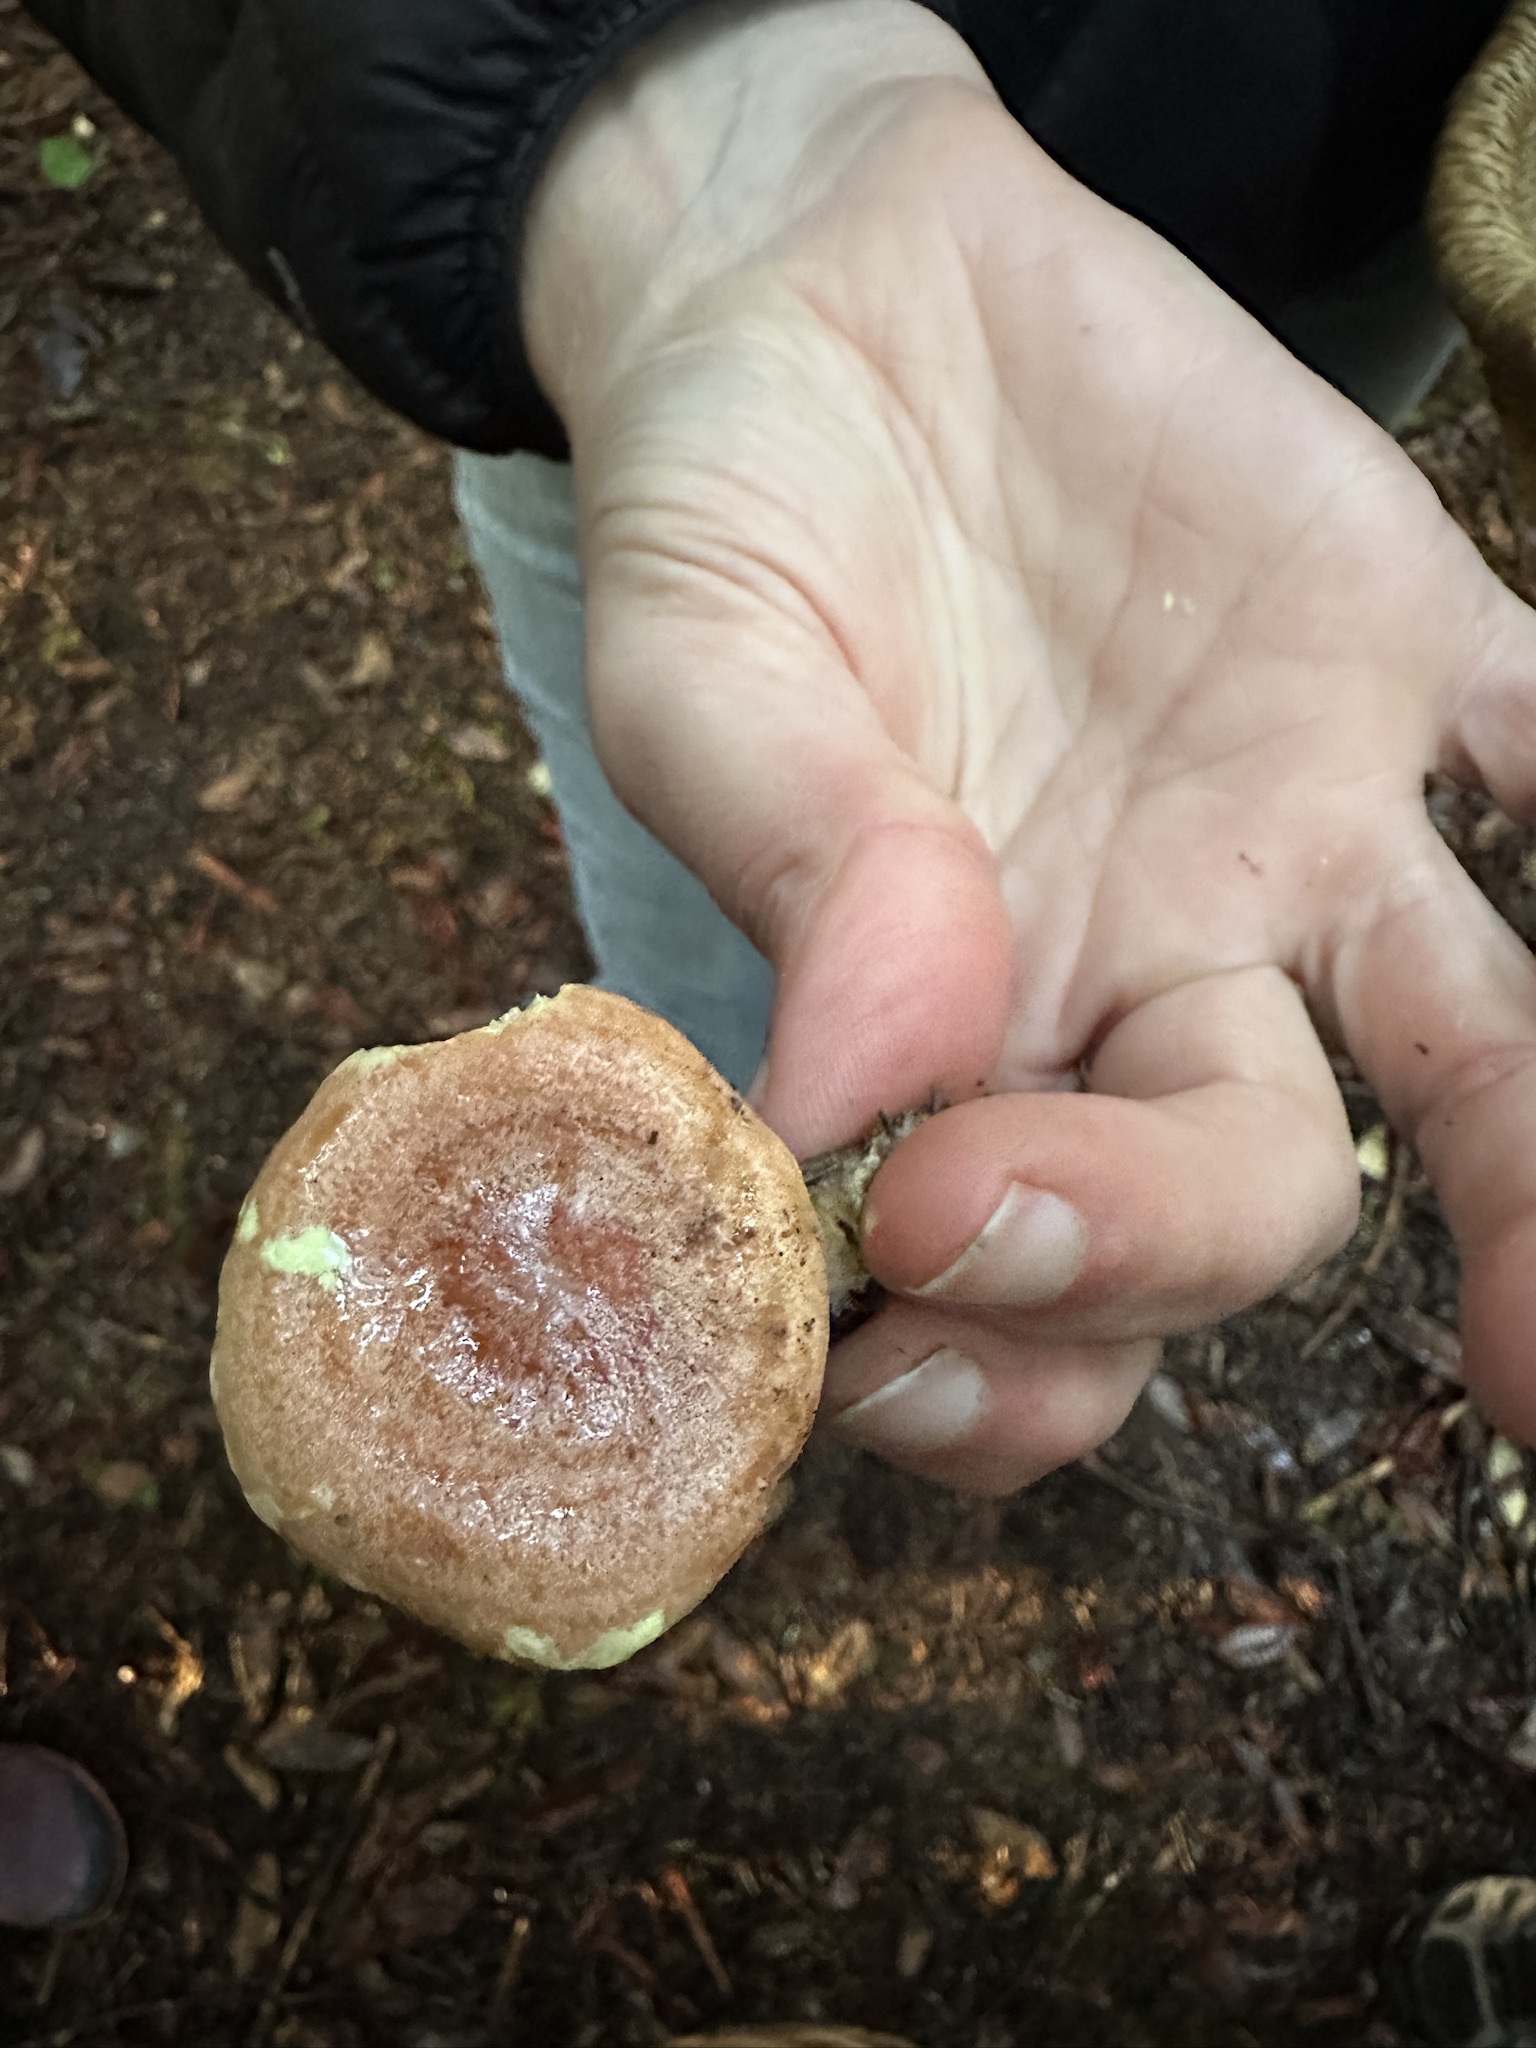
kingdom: Fungi
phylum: Basidiomycota
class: Agaricomycetes
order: Russulales
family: Russulaceae
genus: Lactarius
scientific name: Lactarius xanthogalactus
